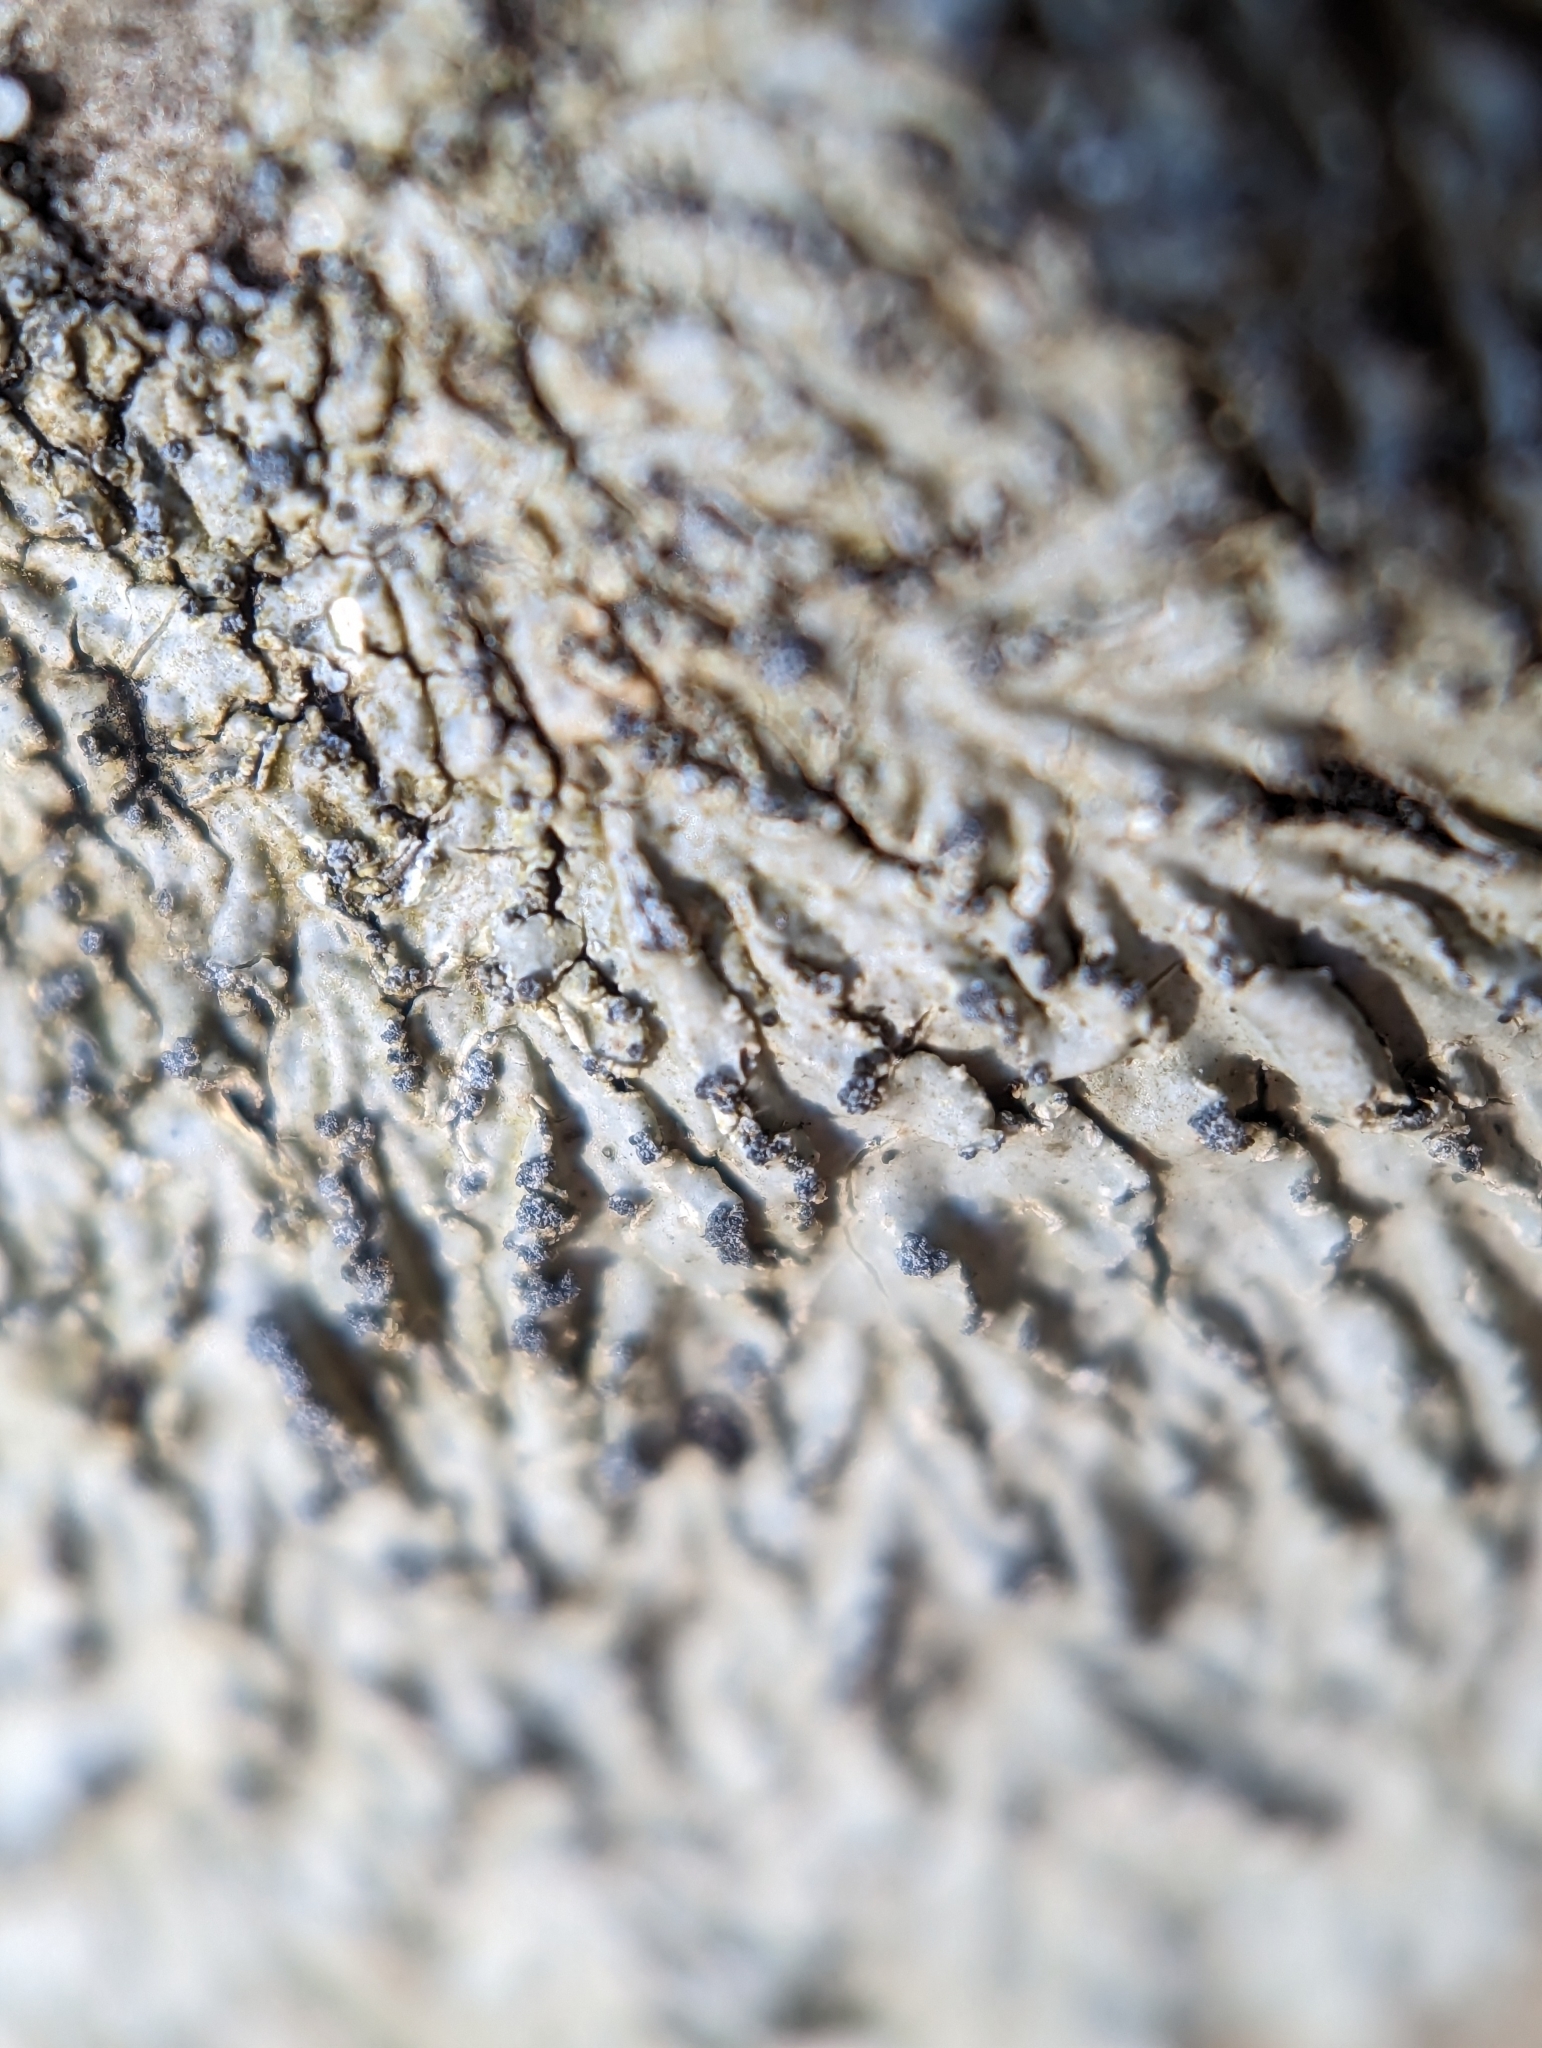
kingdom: Fungi
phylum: Ascomycota
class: Lecanoromycetes
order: Caliciales
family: Caliciaceae
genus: Pyxine
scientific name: Pyxine sorediata
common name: Mustard lichen
